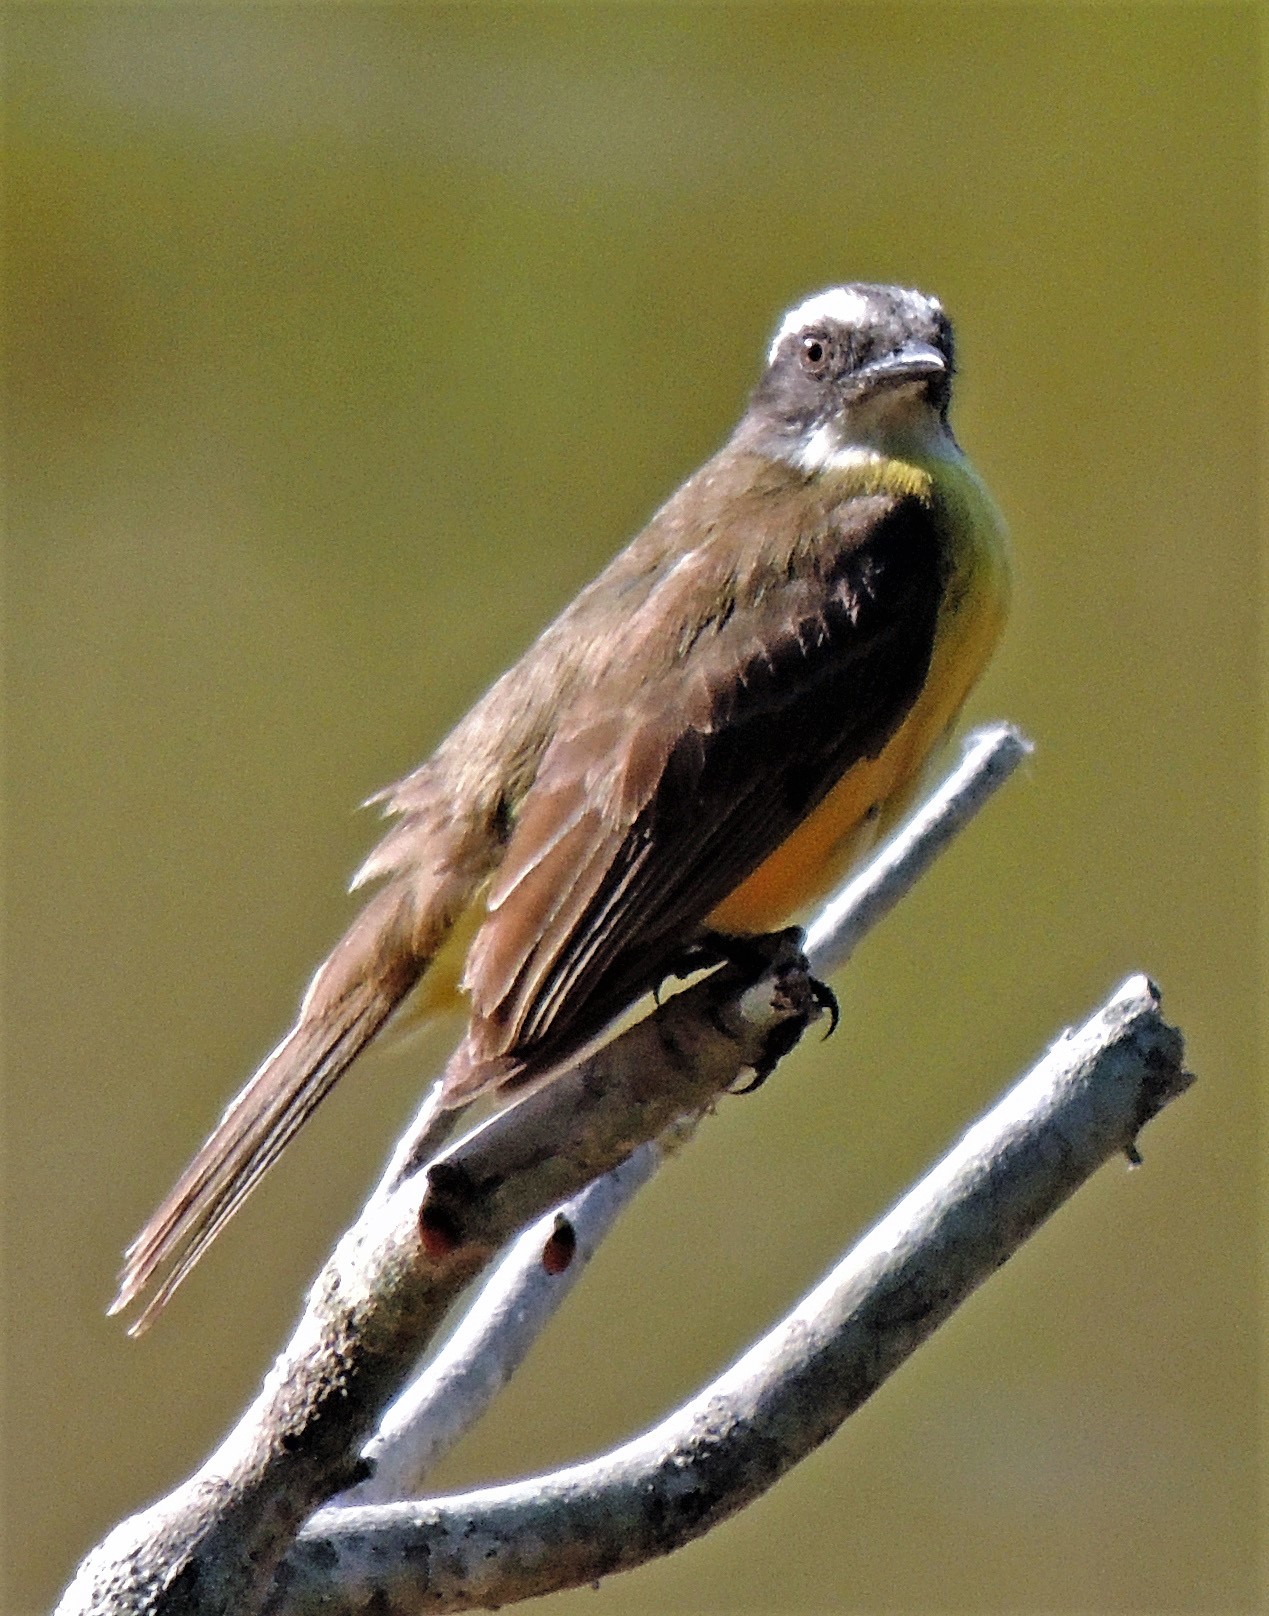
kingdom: Animalia
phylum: Chordata
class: Aves
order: Passeriformes
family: Tyrannidae
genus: Myiozetetes
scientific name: Myiozetetes similis
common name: Social flycatcher
